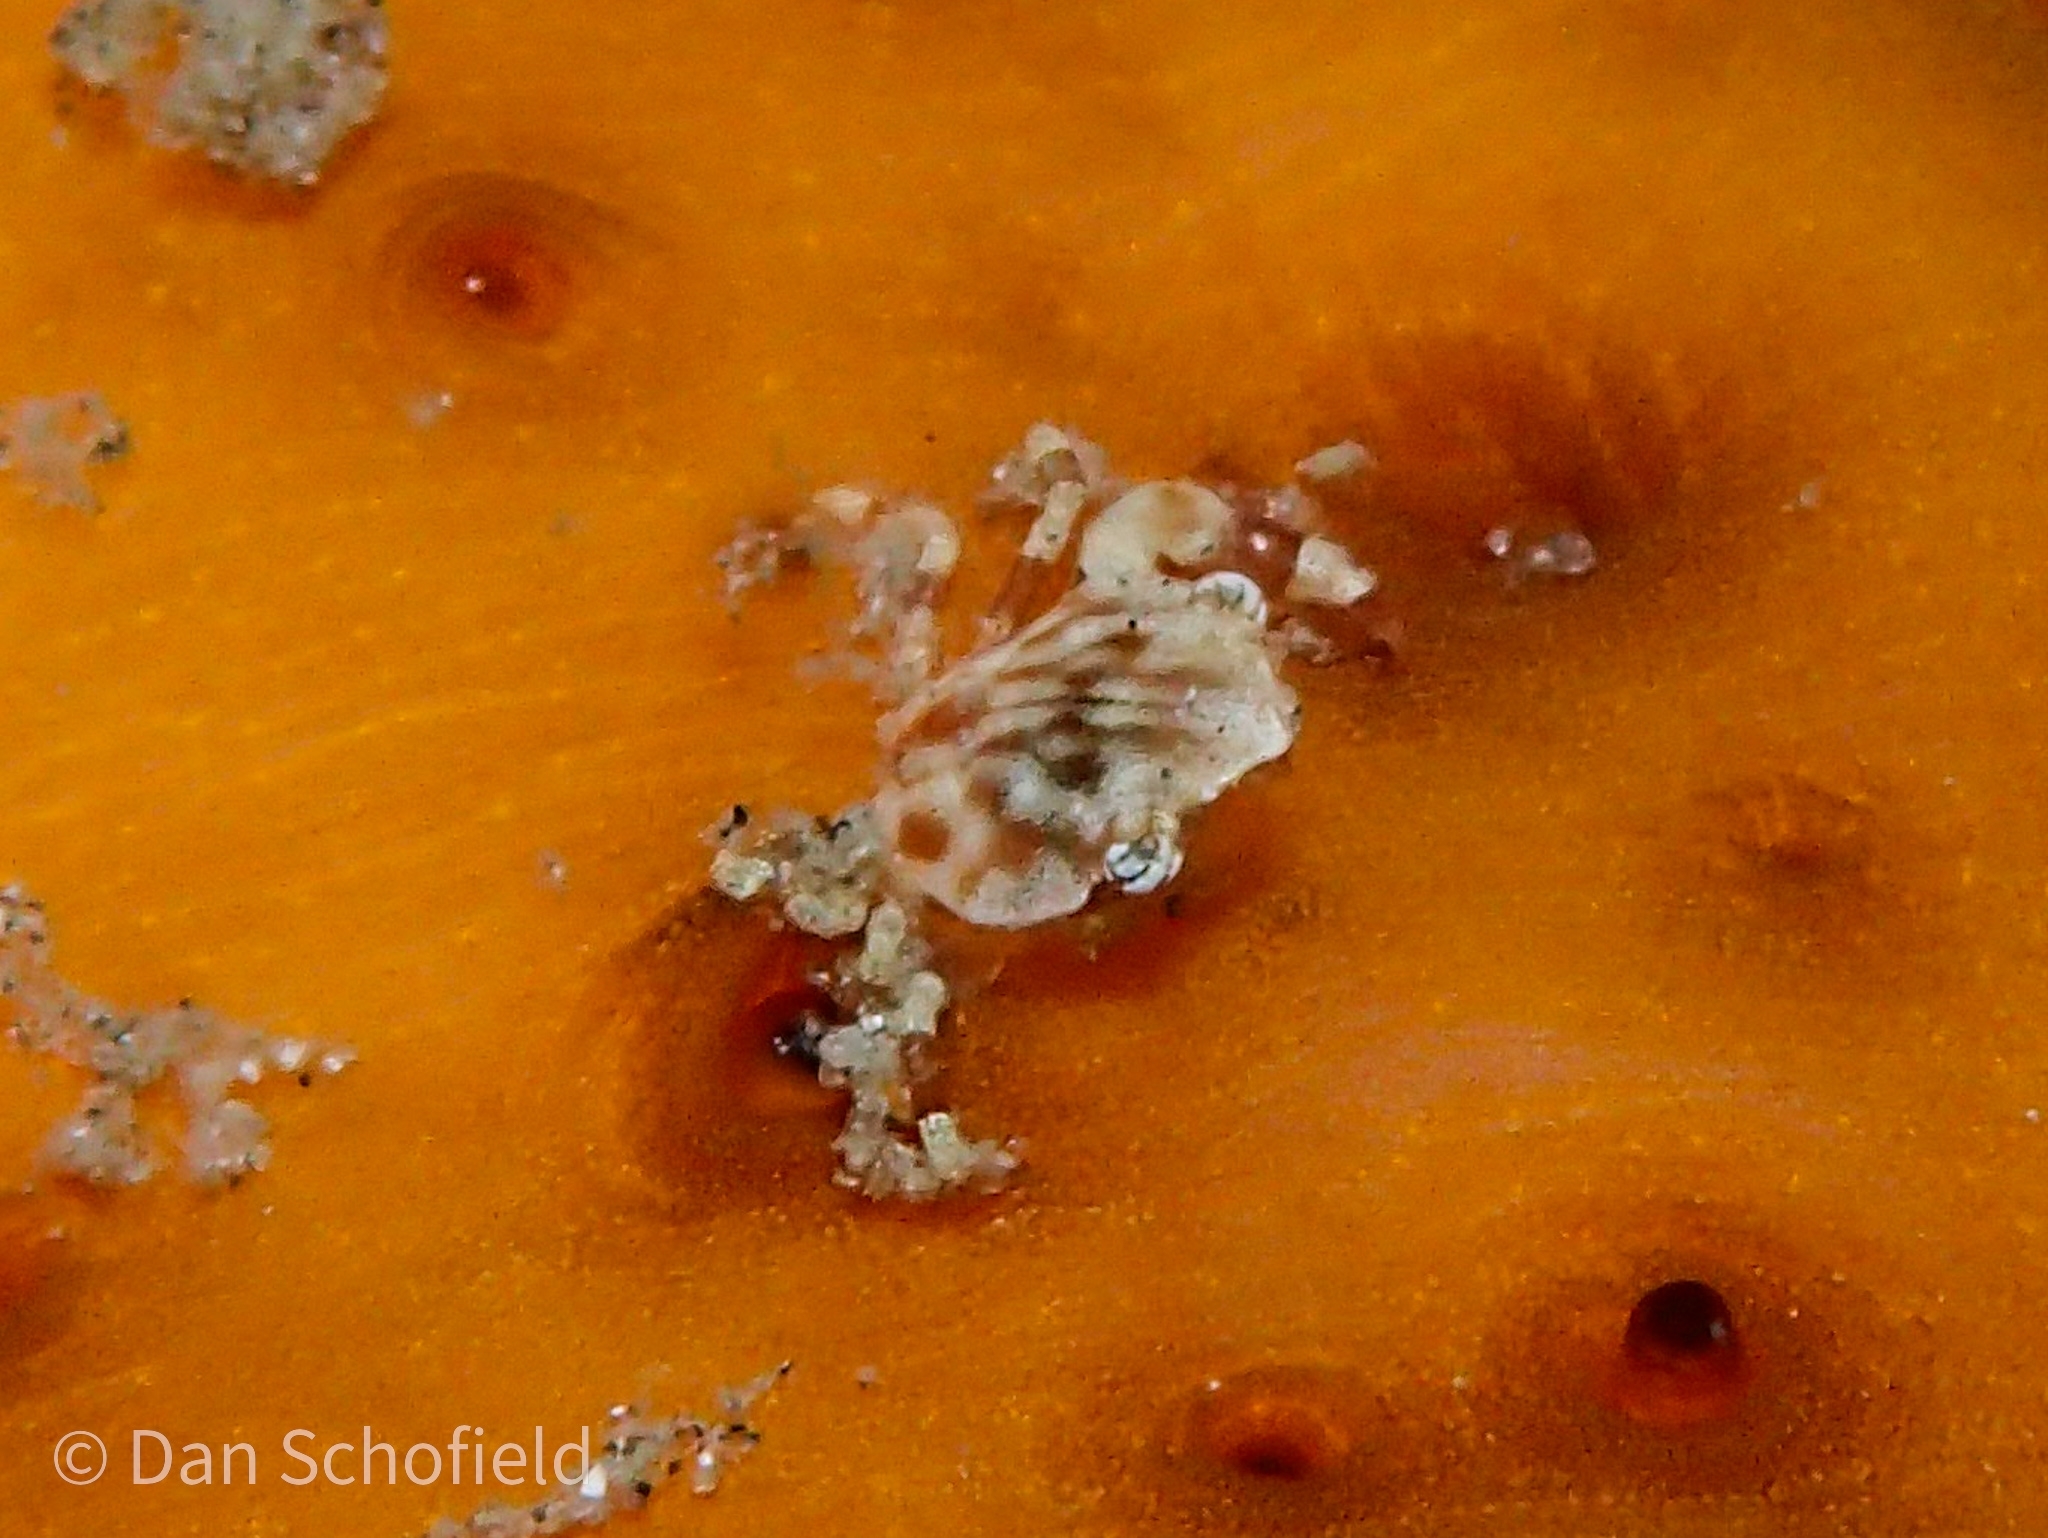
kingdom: Animalia
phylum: Arthropoda
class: Malacostraca
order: Decapoda
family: Portunidae
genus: Lissocarcinus
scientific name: Lissocarcinus orbicularis
